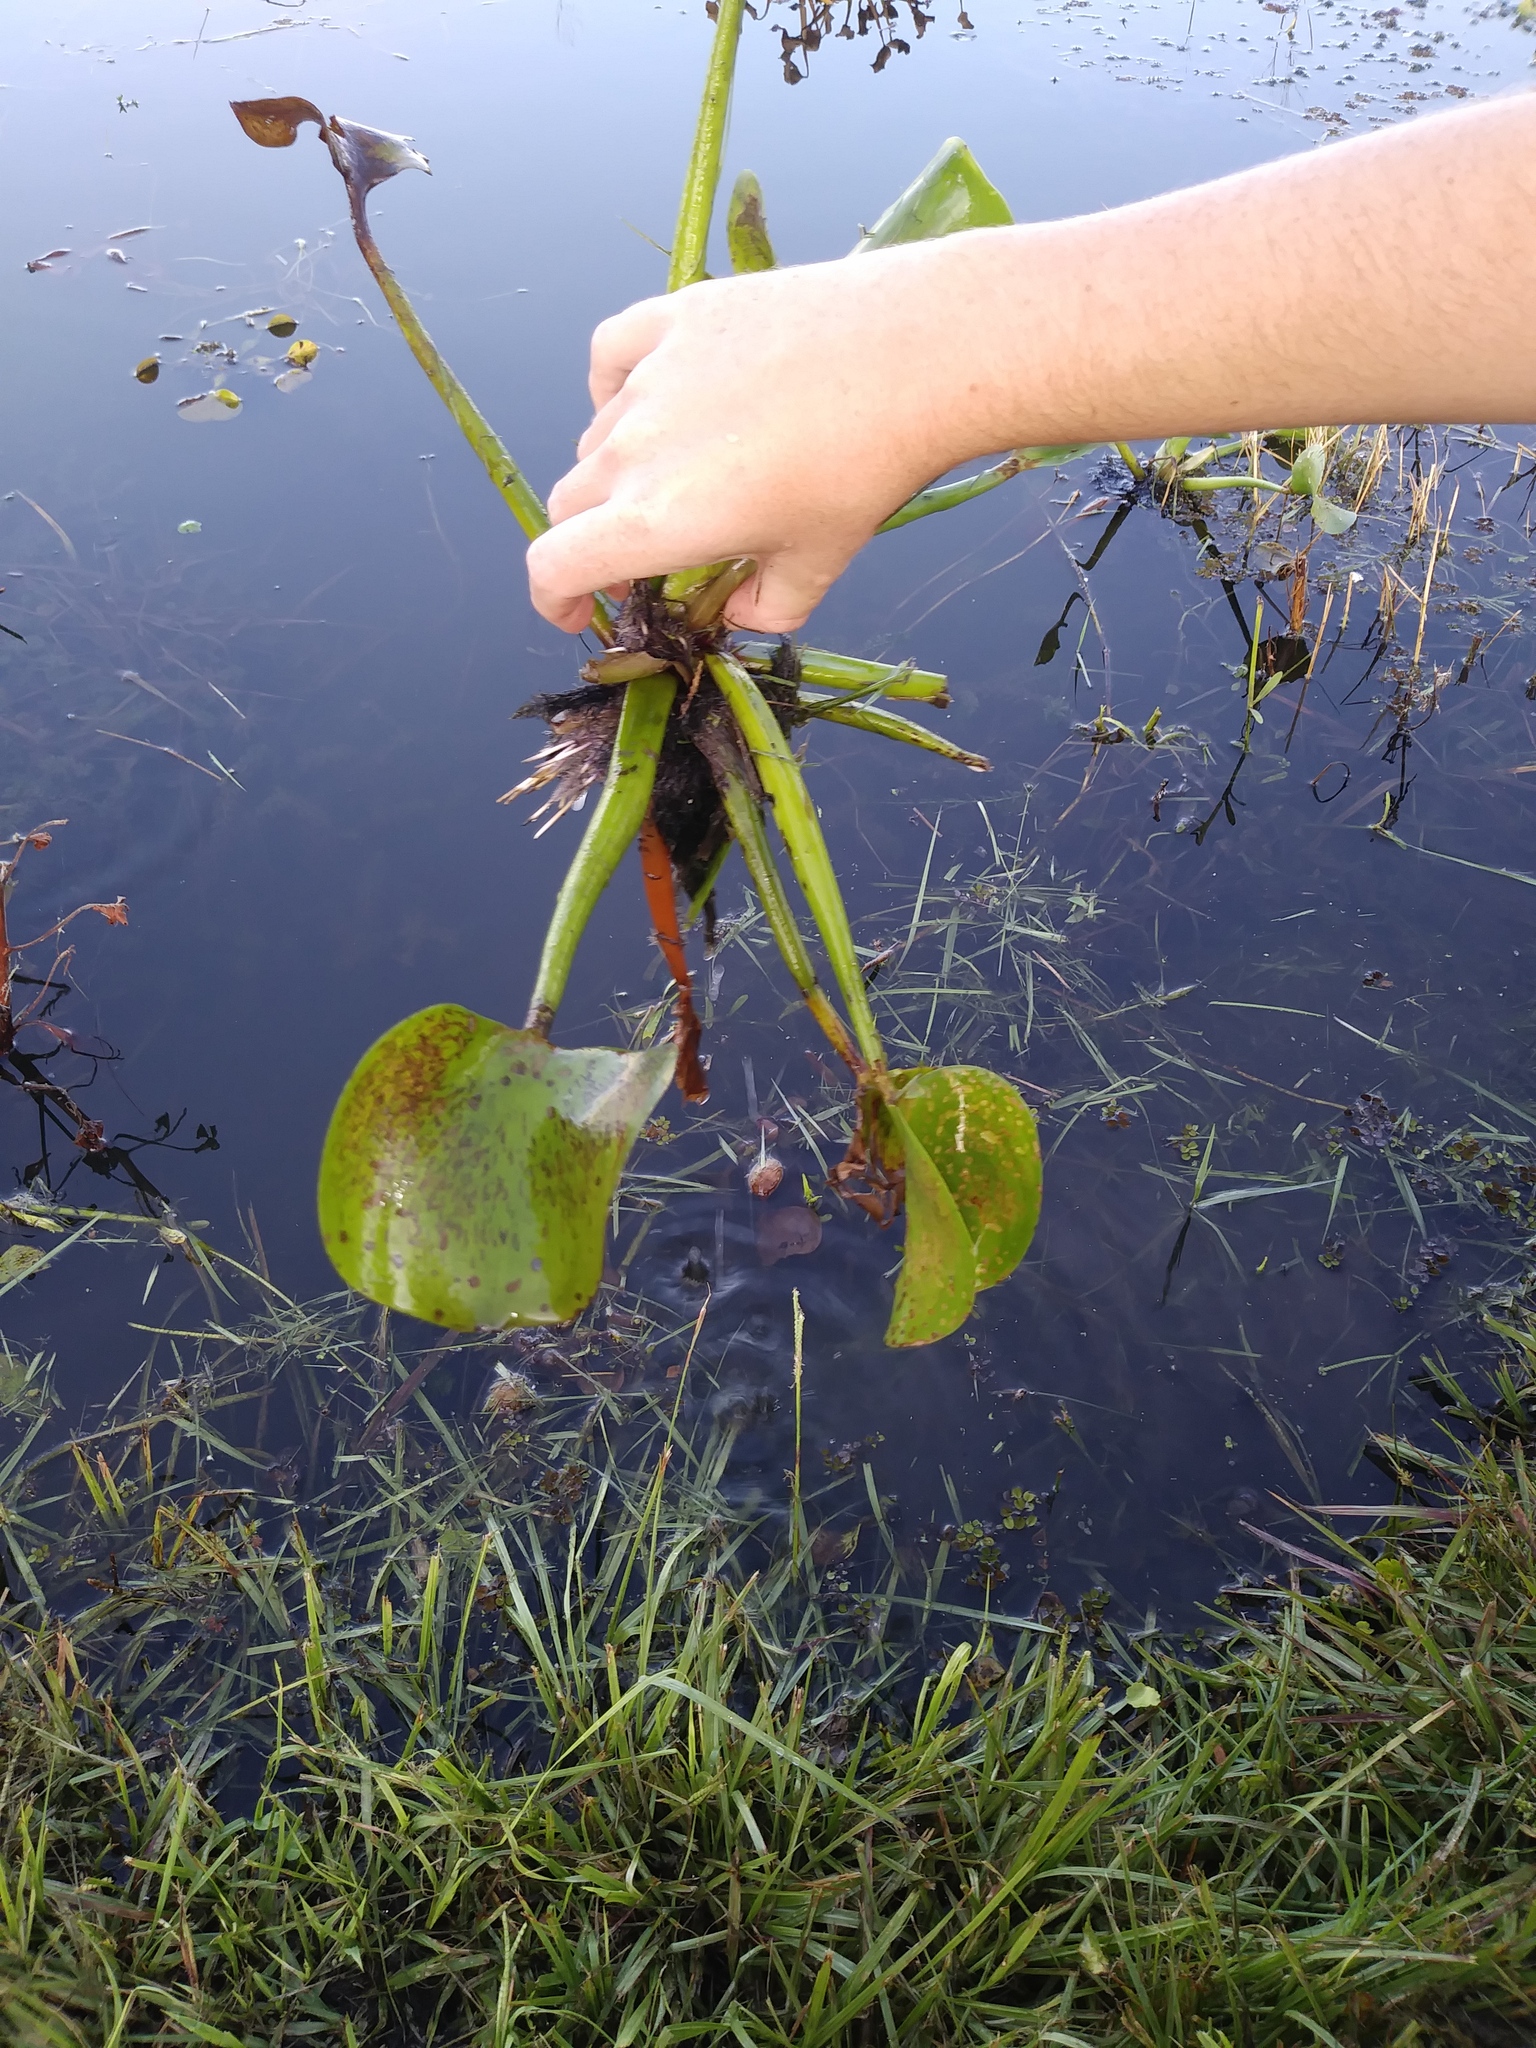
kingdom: Plantae
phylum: Tracheophyta
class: Liliopsida
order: Commelinales
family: Pontederiaceae
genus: Pontederia
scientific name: Pontederia crassipes
